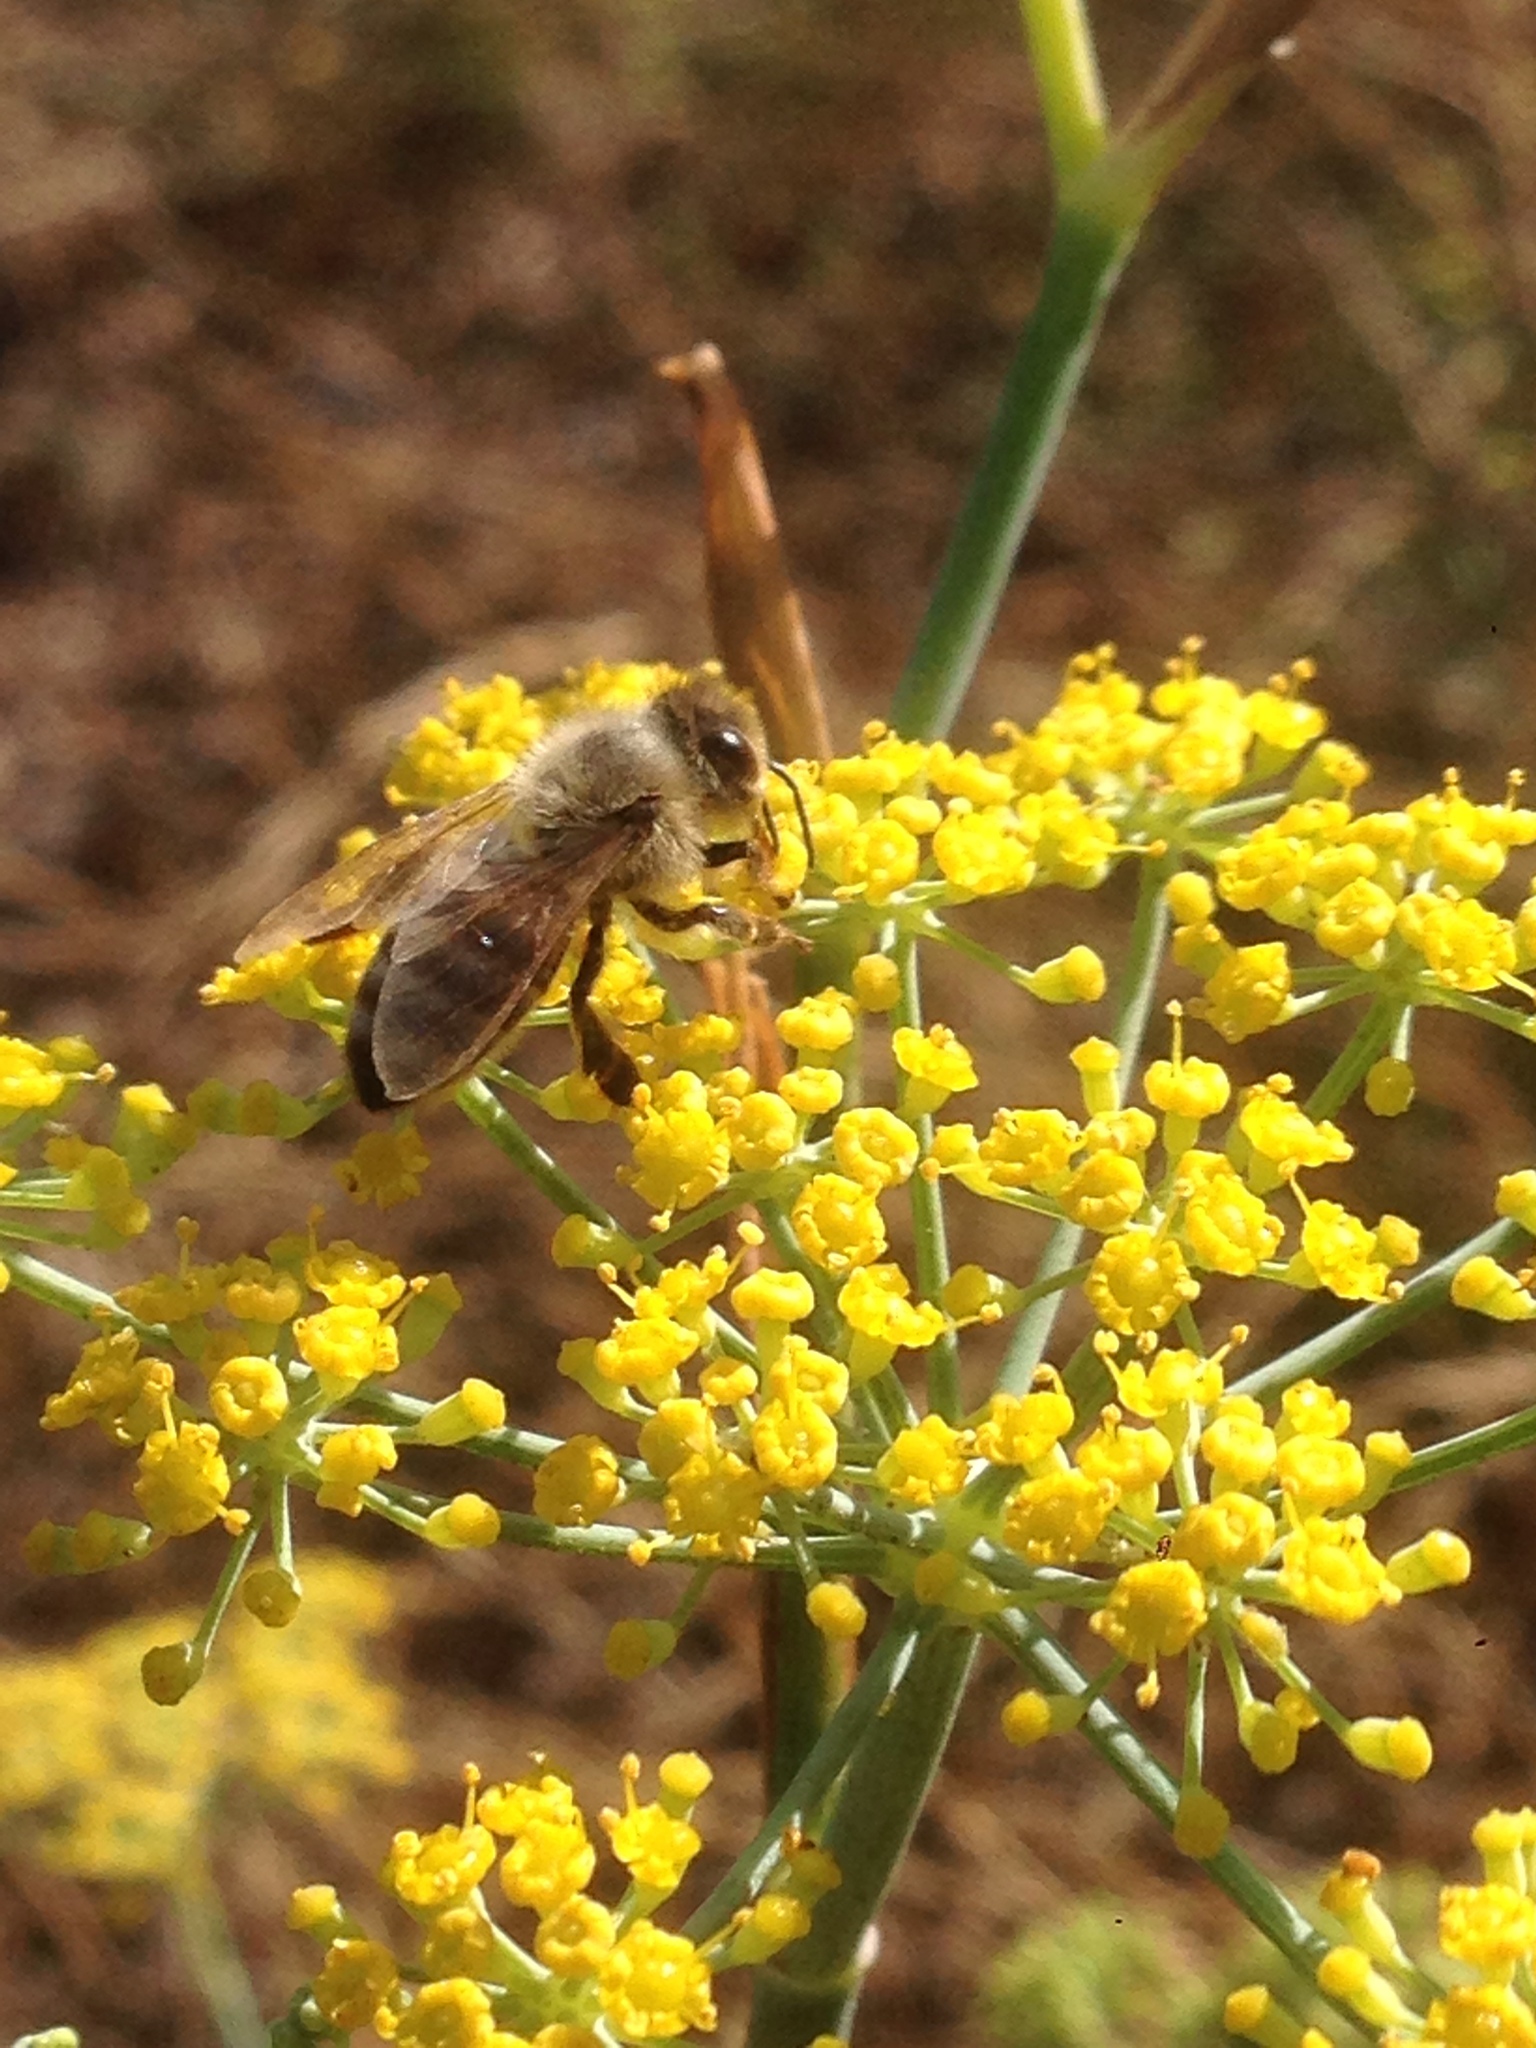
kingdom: Animalia
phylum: Arthropoda
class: Insecta
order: Hymenoptera
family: Apidae
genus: Apis
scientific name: Apis mellifera
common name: Honey bee
